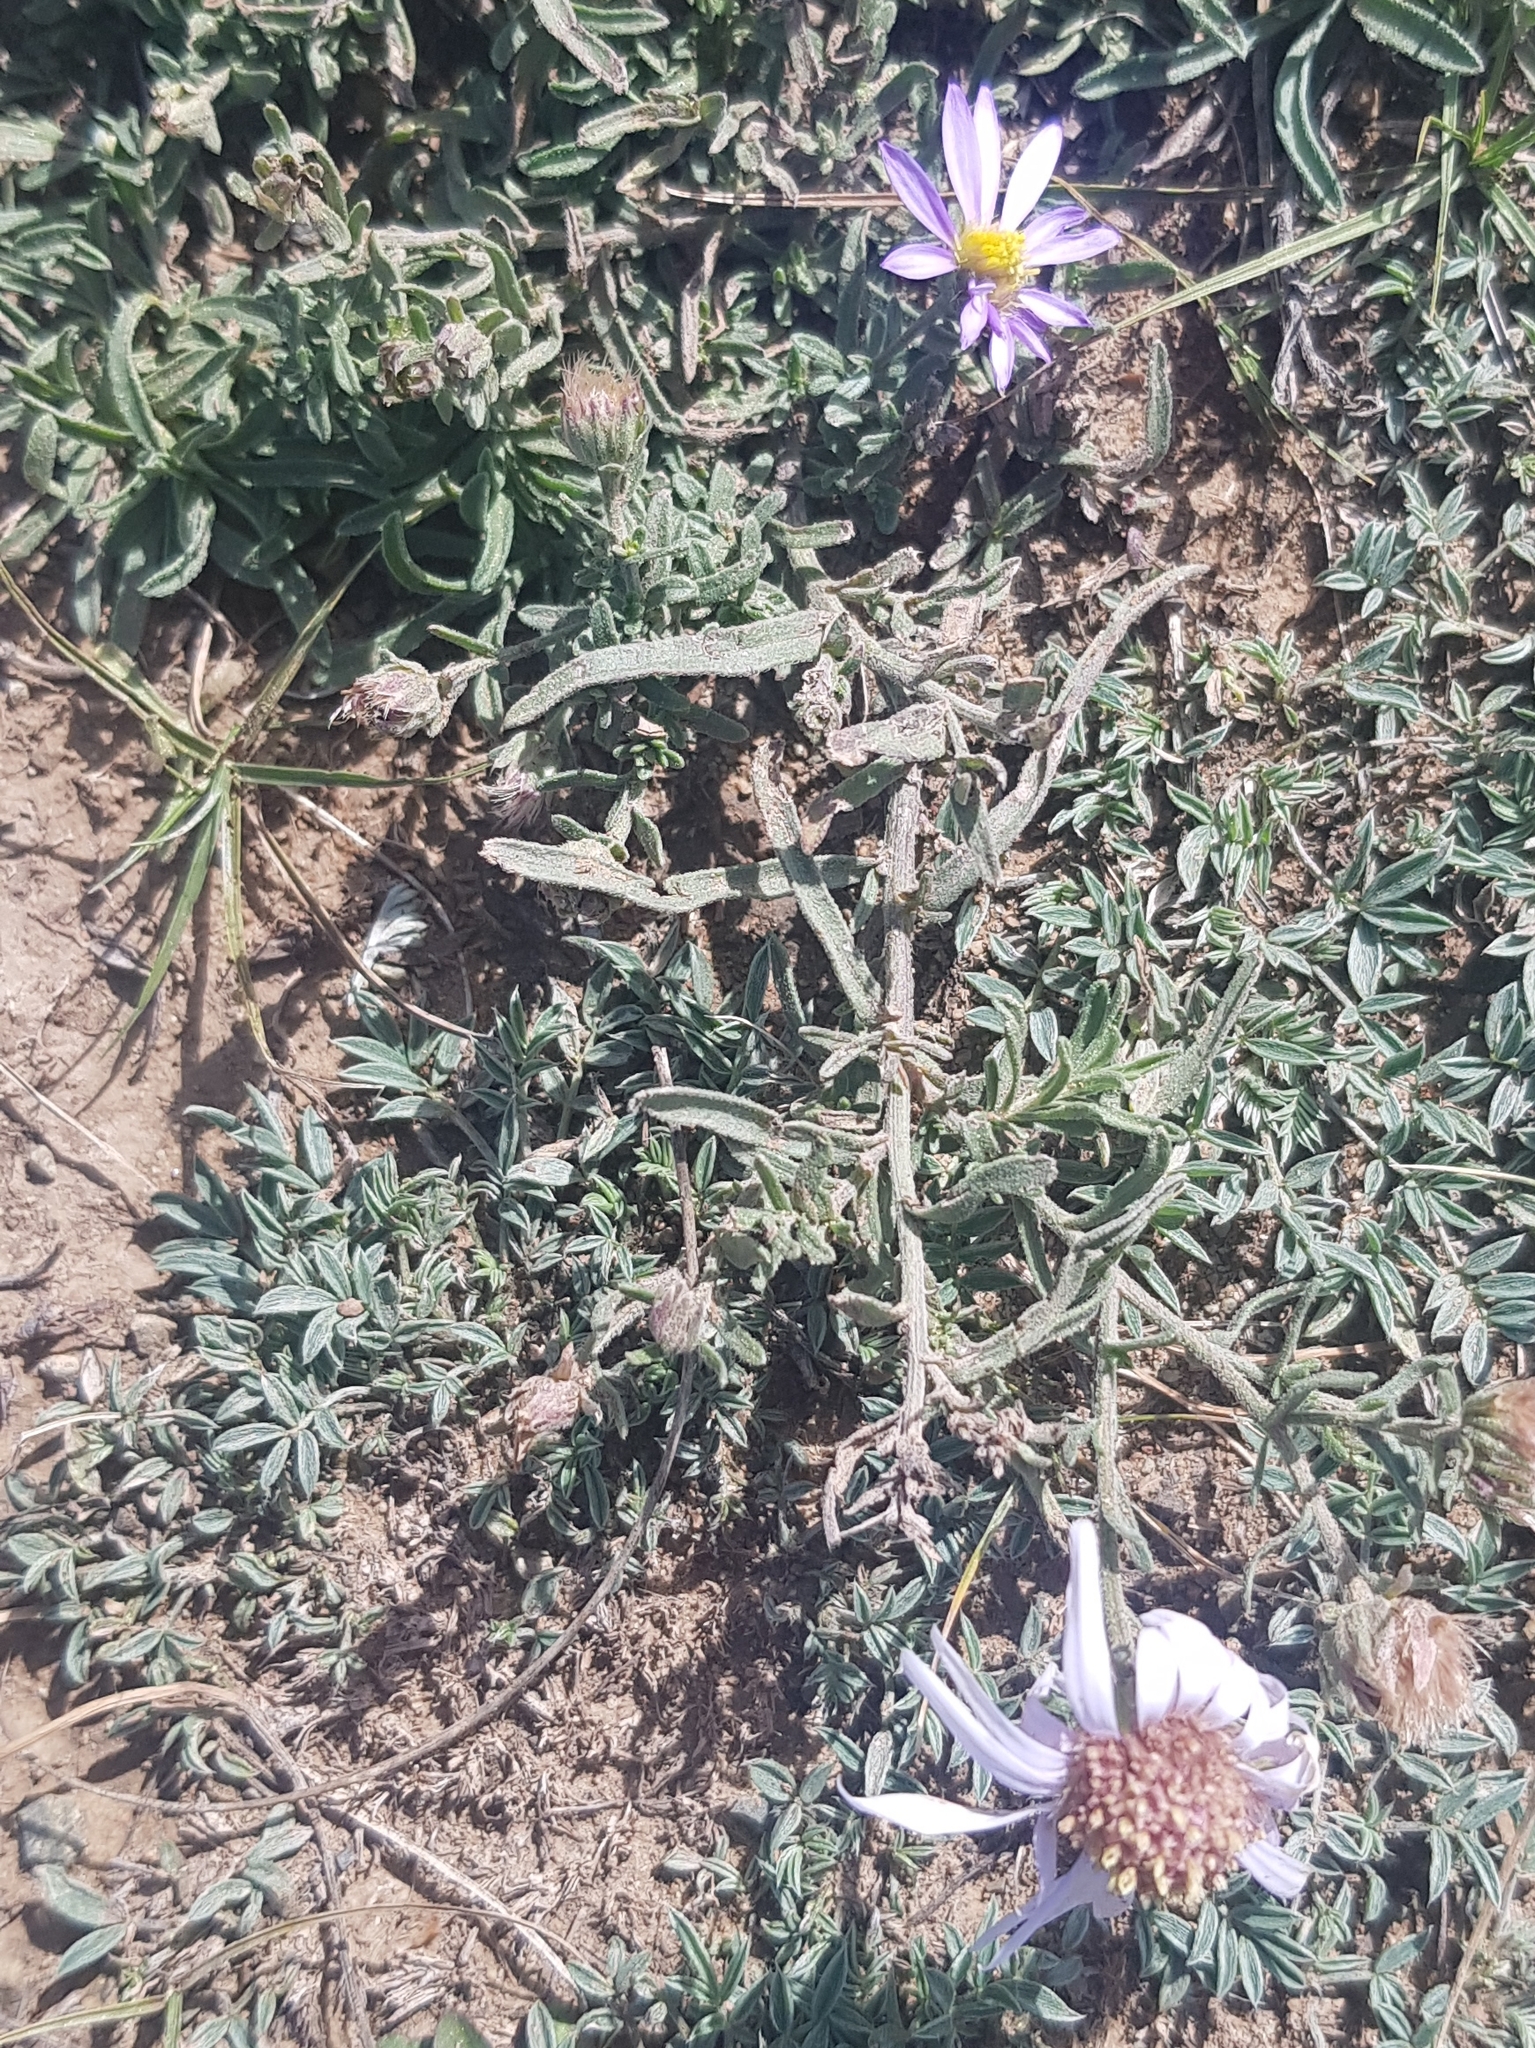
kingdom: Plantae
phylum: Tracheophyta
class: Magnoliopsida
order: Asterales
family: Asteraceae
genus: Heteropappus
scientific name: Heteropappus altaicus
